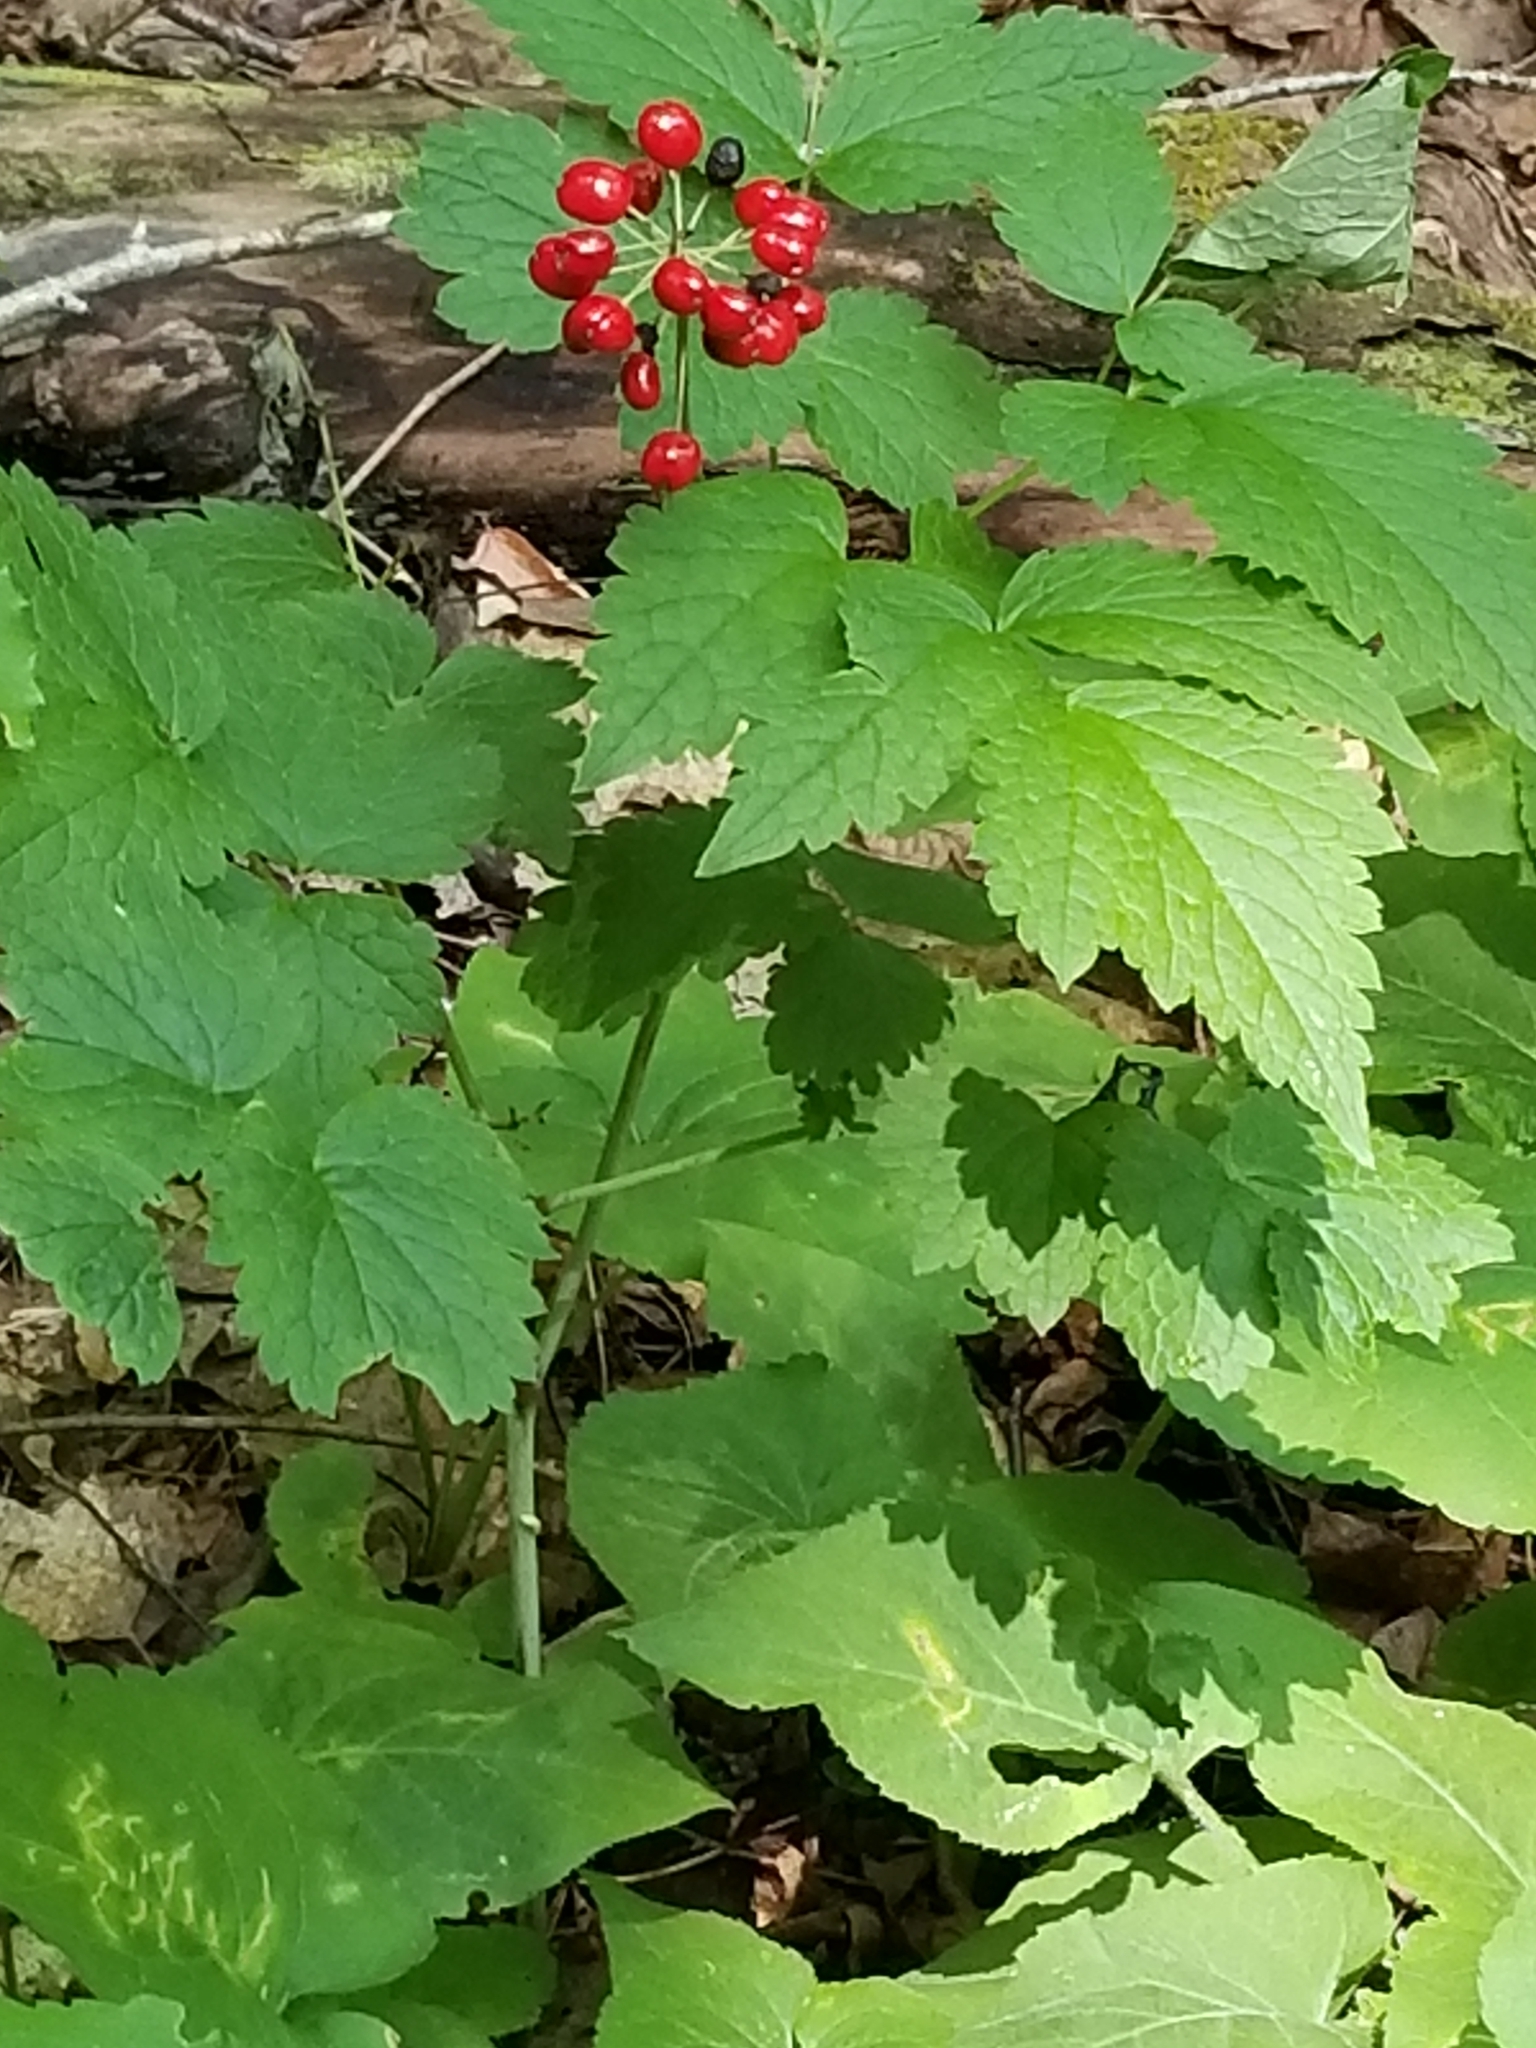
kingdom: Plantae
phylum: Tracheophyta
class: Magnoliopsida
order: Ranunculales
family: Ranunculaceae
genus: Actaea
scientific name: Actaea rubra
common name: Red baneberry
